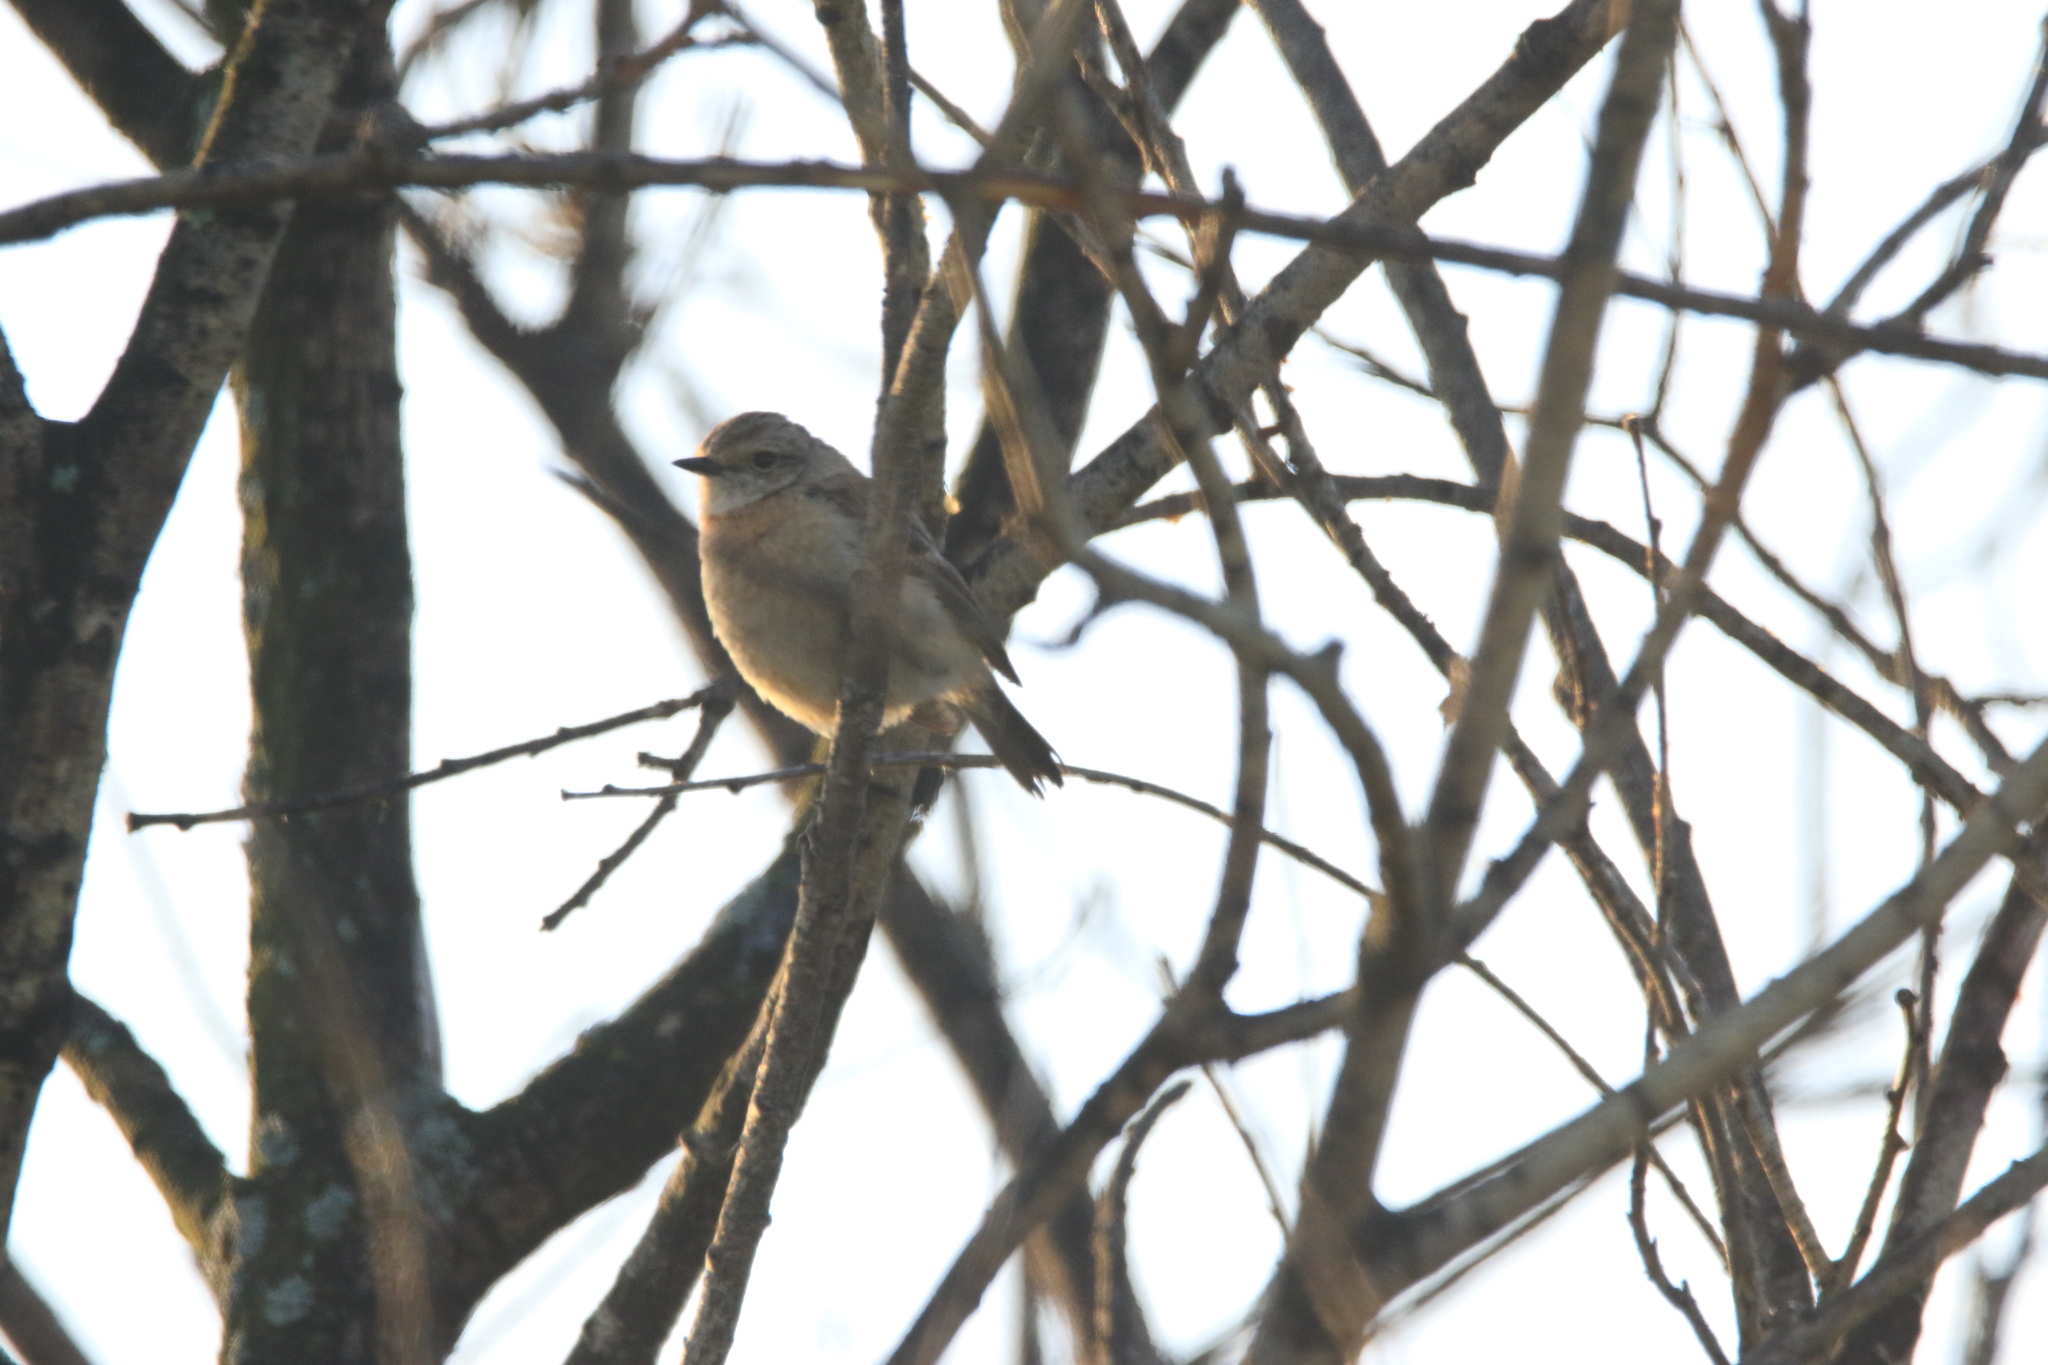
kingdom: Animalia
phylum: Chordata
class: Aves
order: Passeriformes
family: Muscicapidae
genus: Saxicola
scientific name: Saxicola maurus
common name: Siberian stonechat
